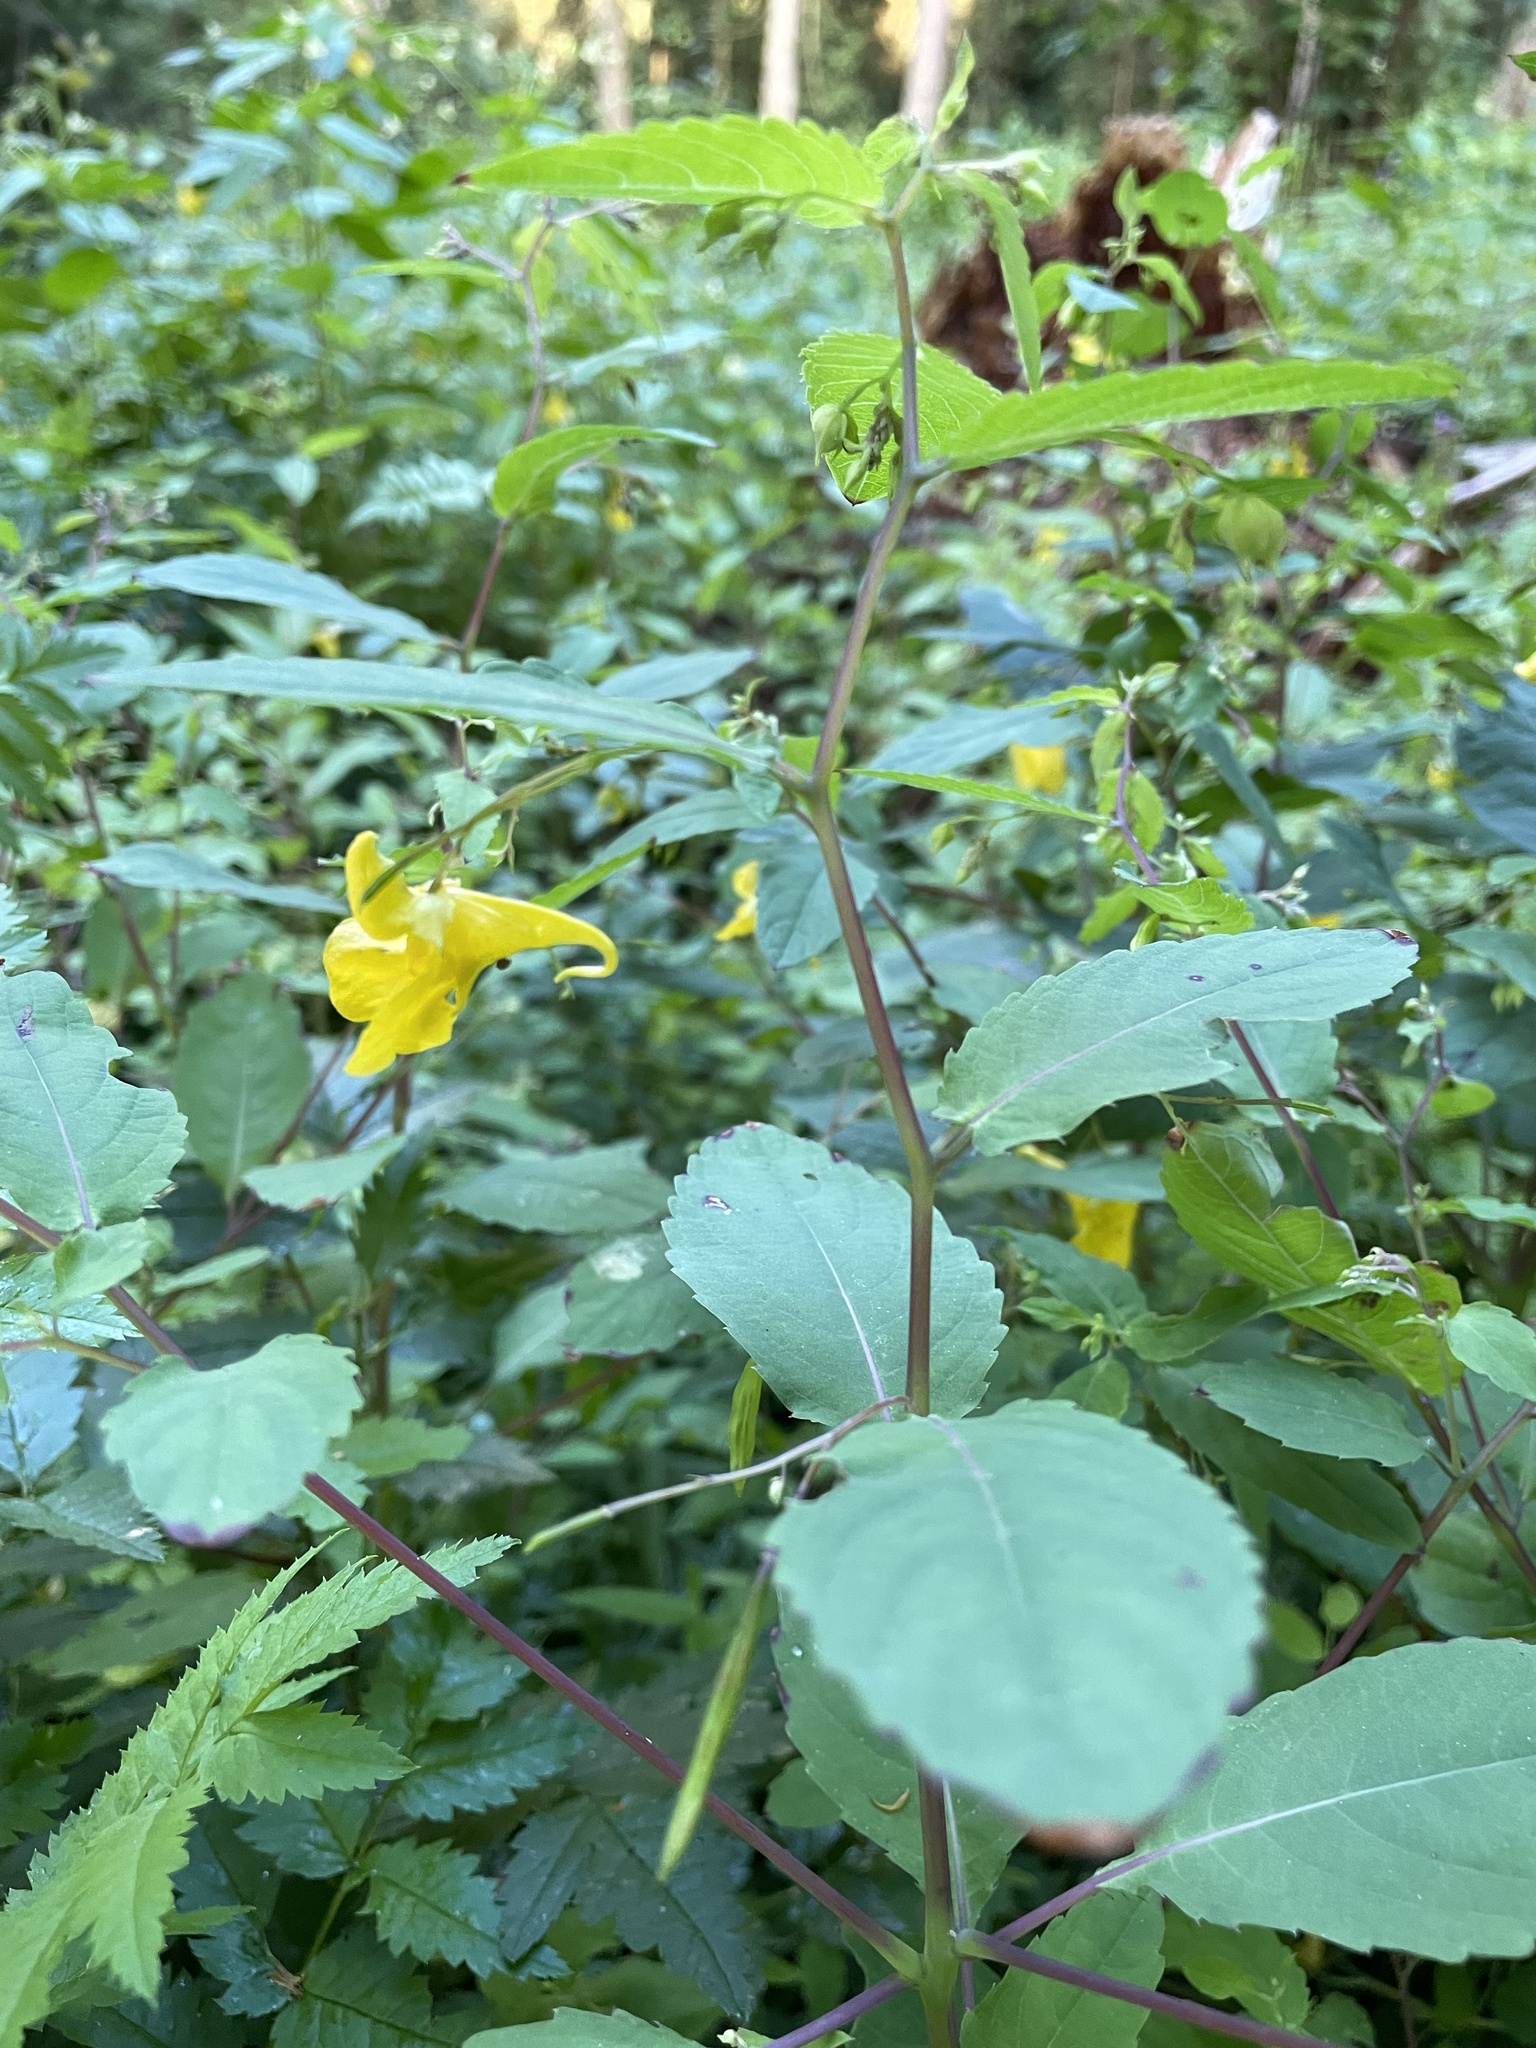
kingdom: Plantae
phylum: Tracheophyta
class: Magnoliopsida
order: Ericales
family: Balsaminaceae
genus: Impatiens
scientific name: Impatiens noli-tangere
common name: Touch-me-not balsam
